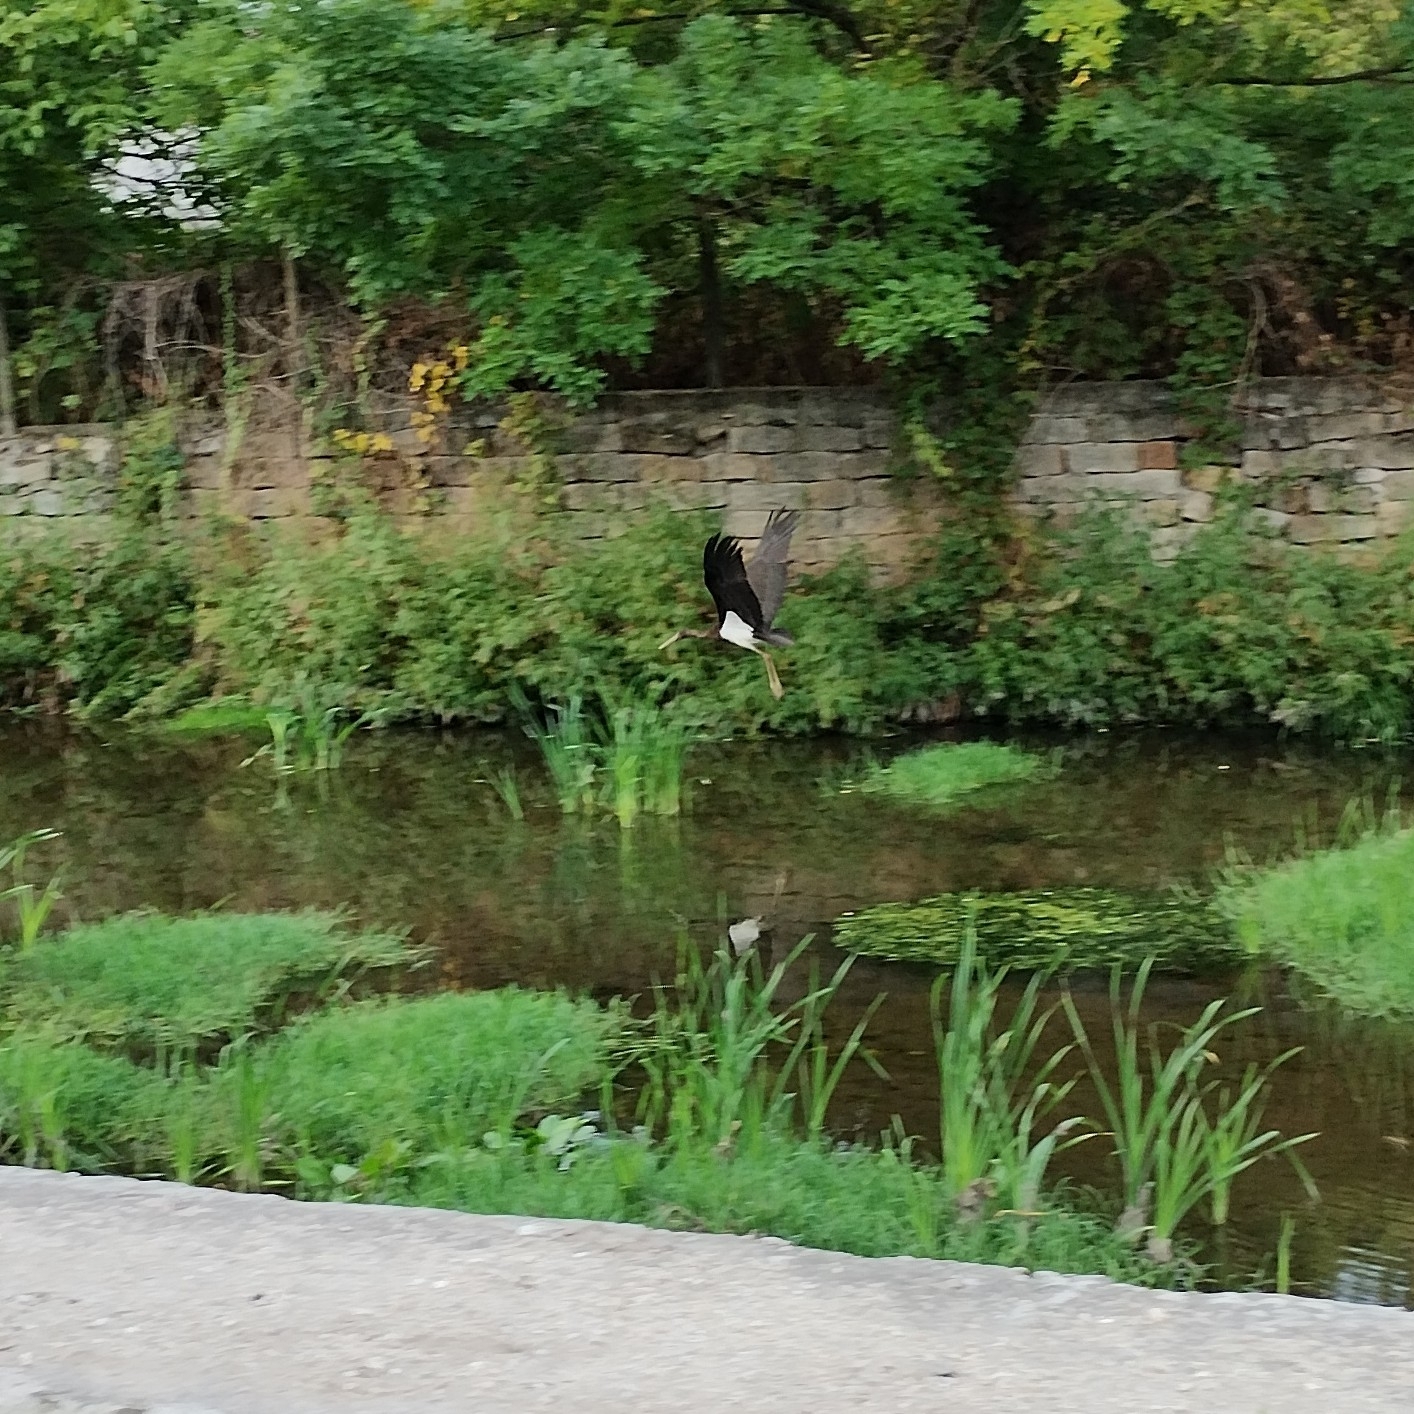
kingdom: Animalia
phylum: Chordata
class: Aves
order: Ciconiiformes
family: Ciconiidae
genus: Ciconia
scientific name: Ciconia nigra
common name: Black stork
